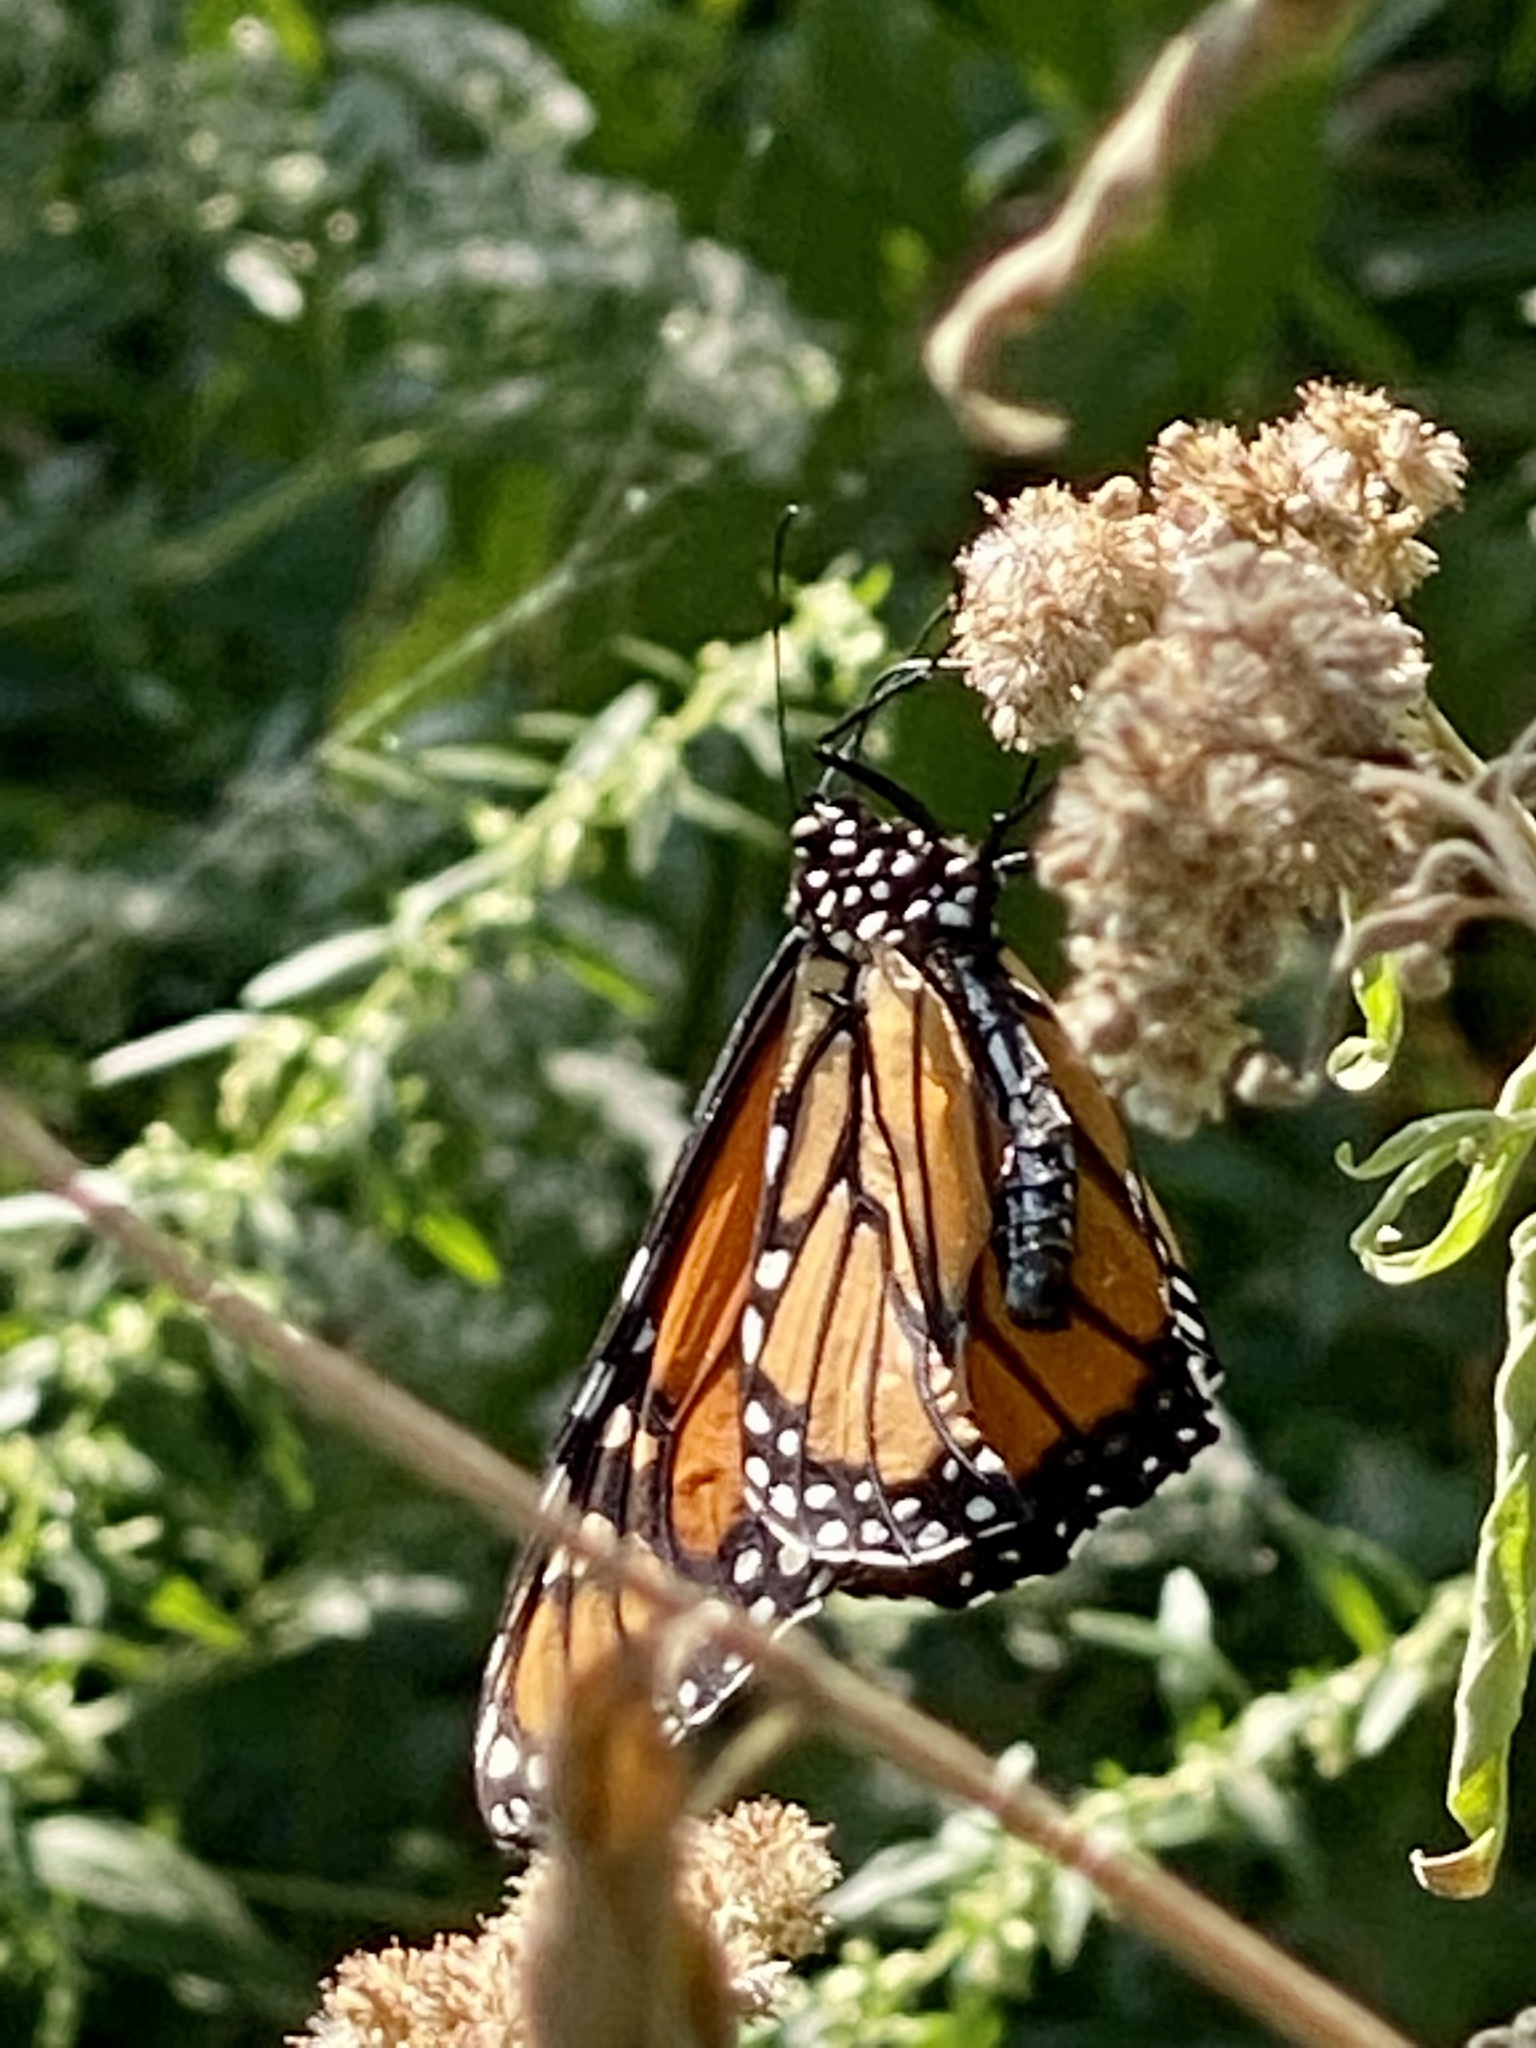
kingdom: Animalia
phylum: Arthropoda
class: Insecta
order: Lepidoptera
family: Nymphalidae
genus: Danaus
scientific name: Danaus plexippus
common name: Monarch
